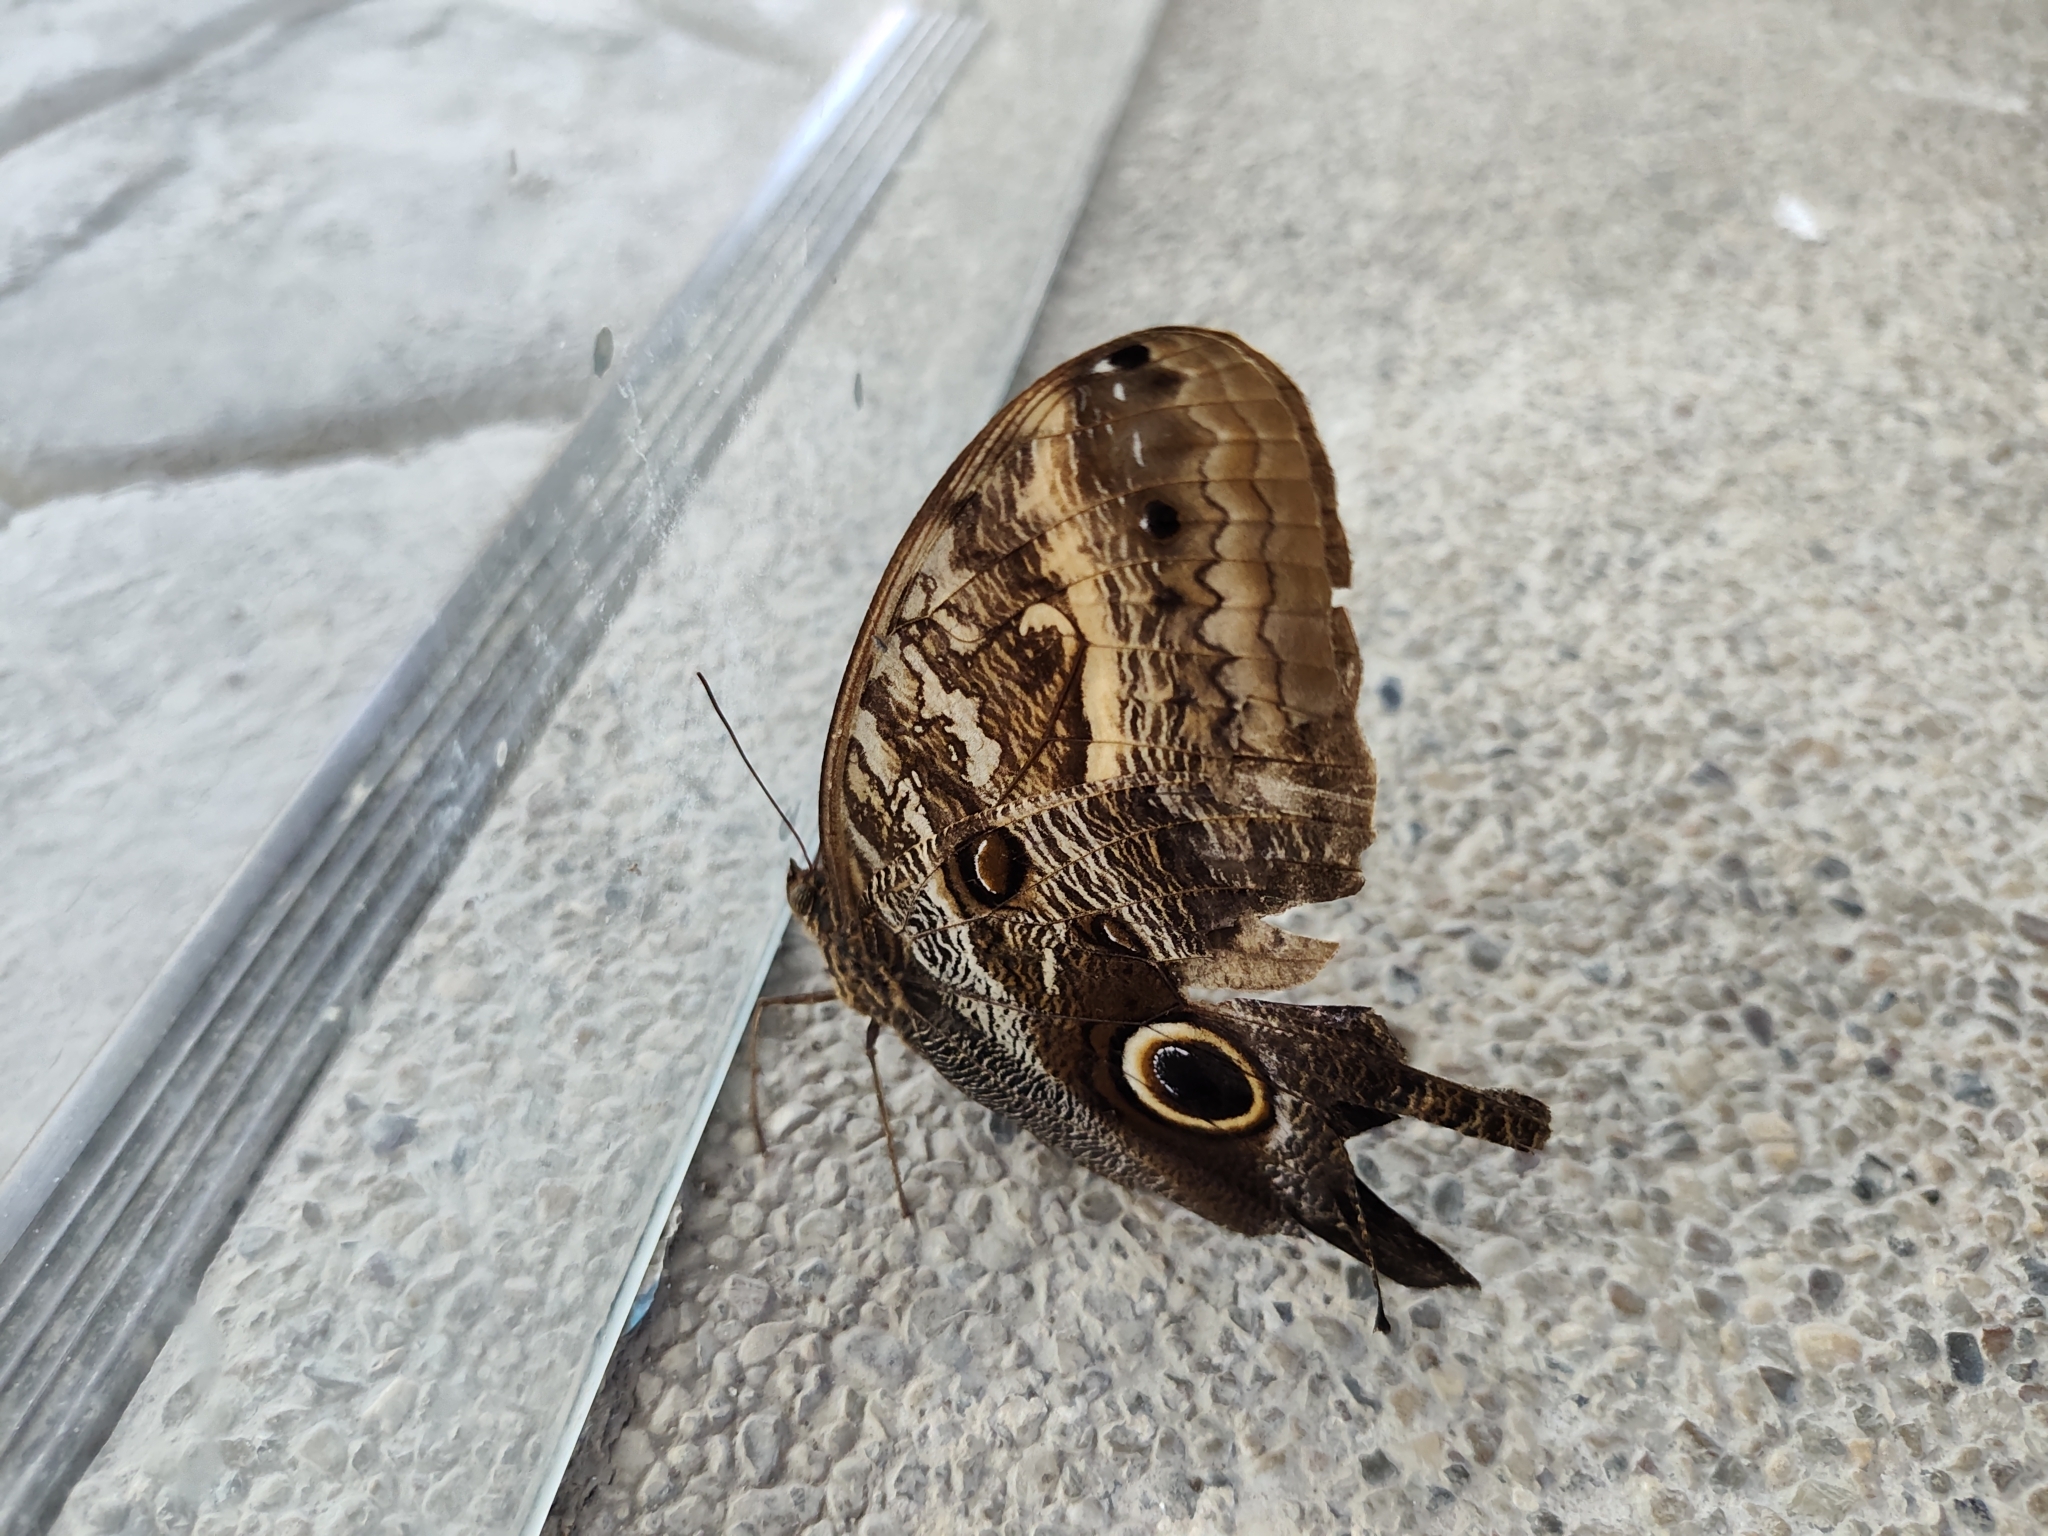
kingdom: Animalia
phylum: Arthropoda
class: Insecta
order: Lepidoptera
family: Nymphalidae
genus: Caligo
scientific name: Caligo illioneus
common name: Dusky owl-butterfly
